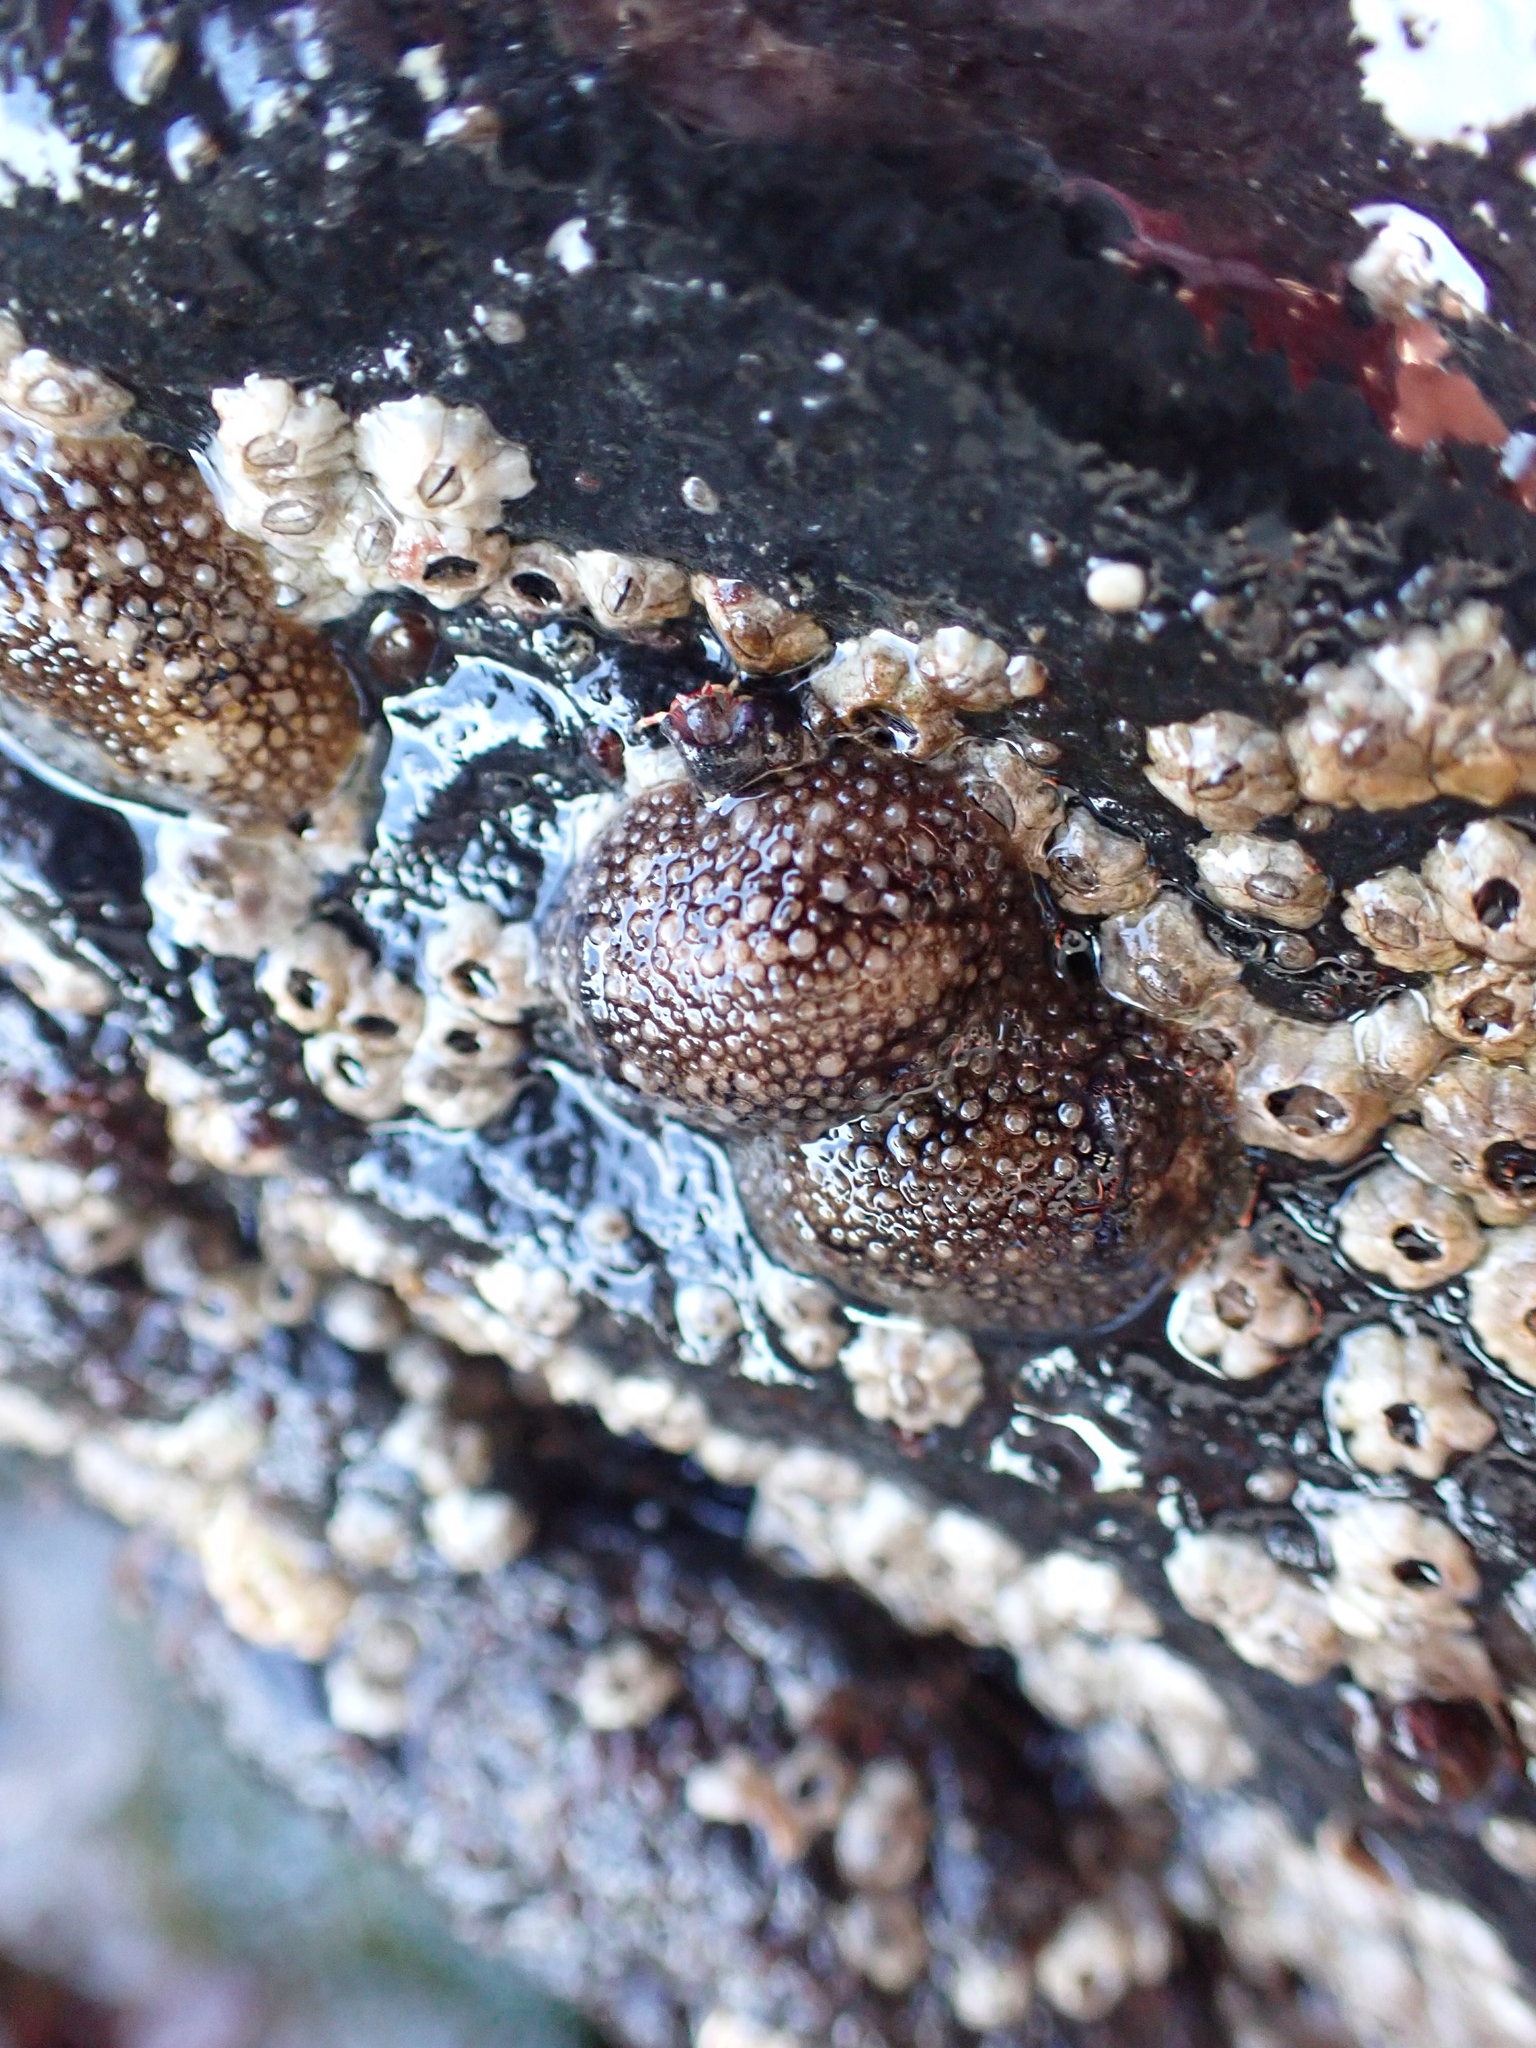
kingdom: Animalia
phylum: Mollusca
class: Gastropoda
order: Nudibranchia
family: Onchidorididae
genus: Onchidoris
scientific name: Onchidoris bilamellata
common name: Barnacle-eating onchidoris
